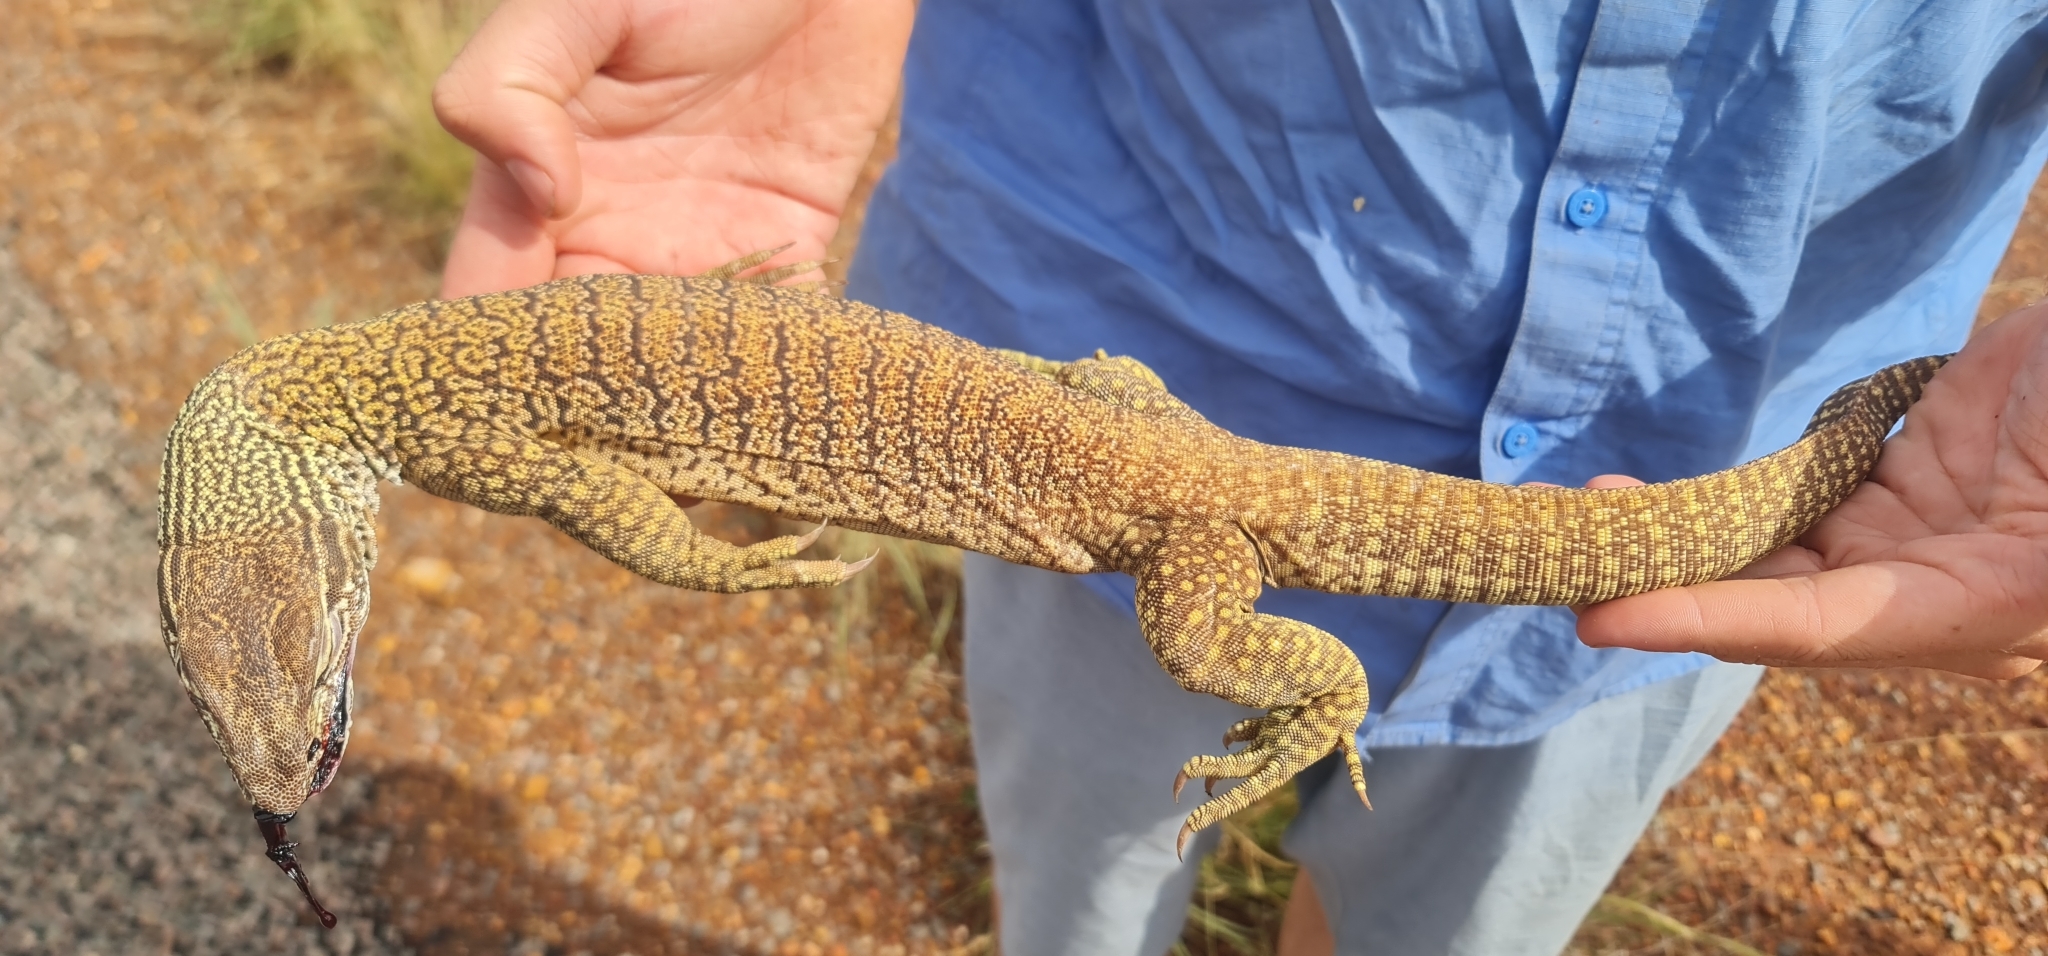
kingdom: Animalia
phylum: Chordata
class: Squamata
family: Varanidae
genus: Varanus
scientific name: Varanus gouldii
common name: Gould's goanna
